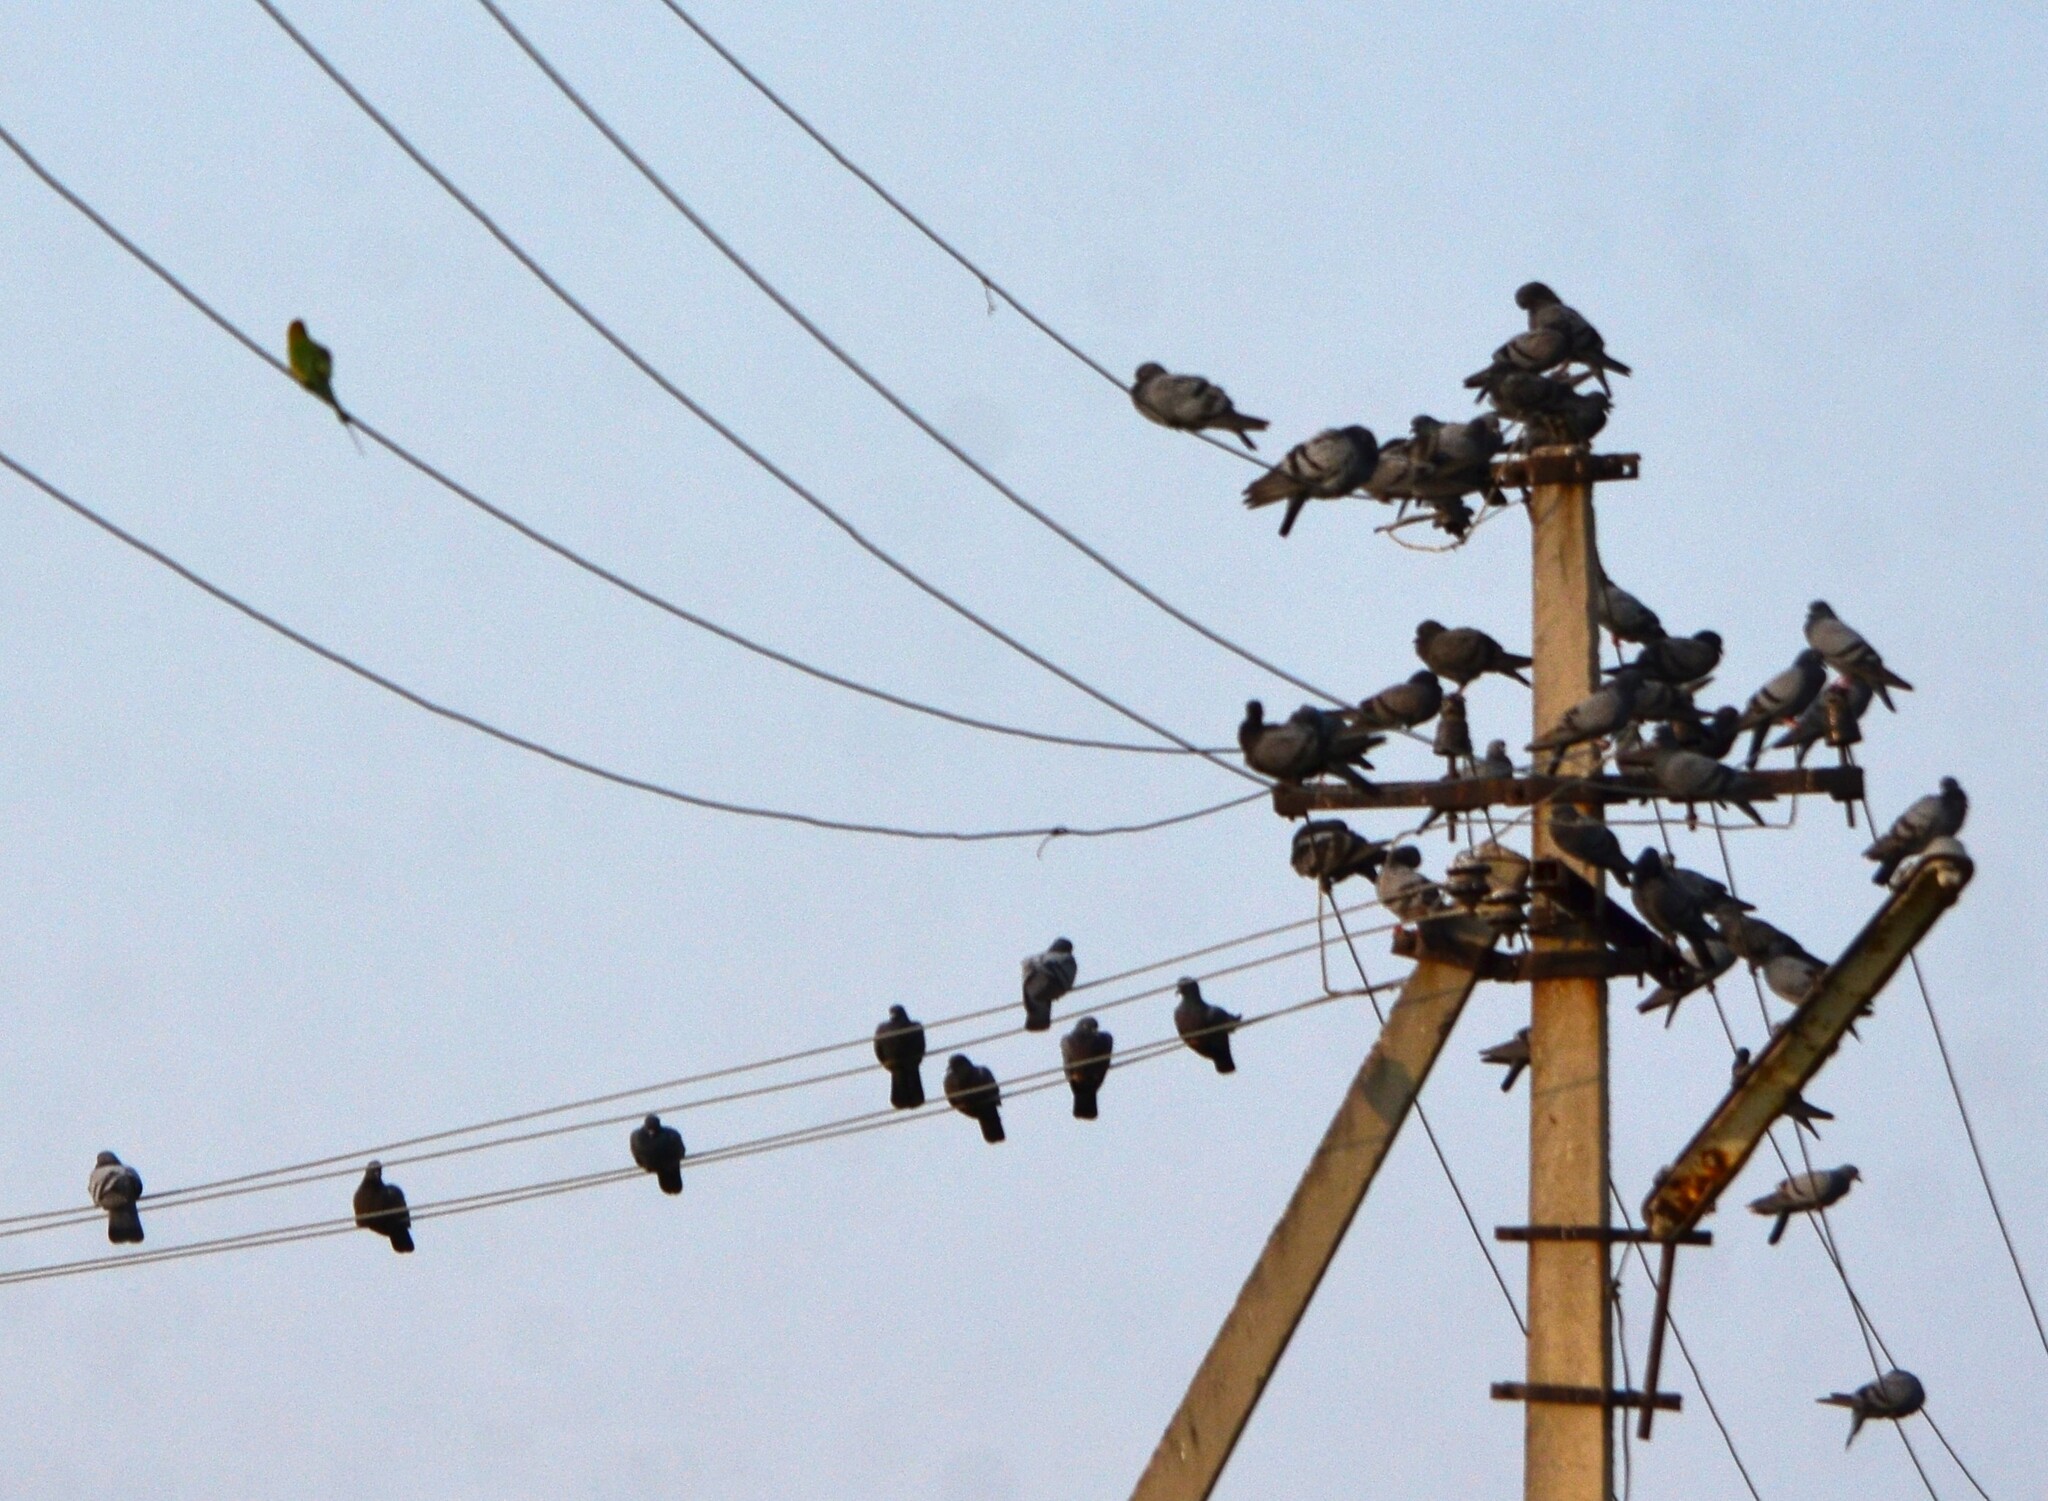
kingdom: Animalia
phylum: Chordata
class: Aves
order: Columbiformes
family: Columbidae
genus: Columba
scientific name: Columba livia
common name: Rock pigeon
